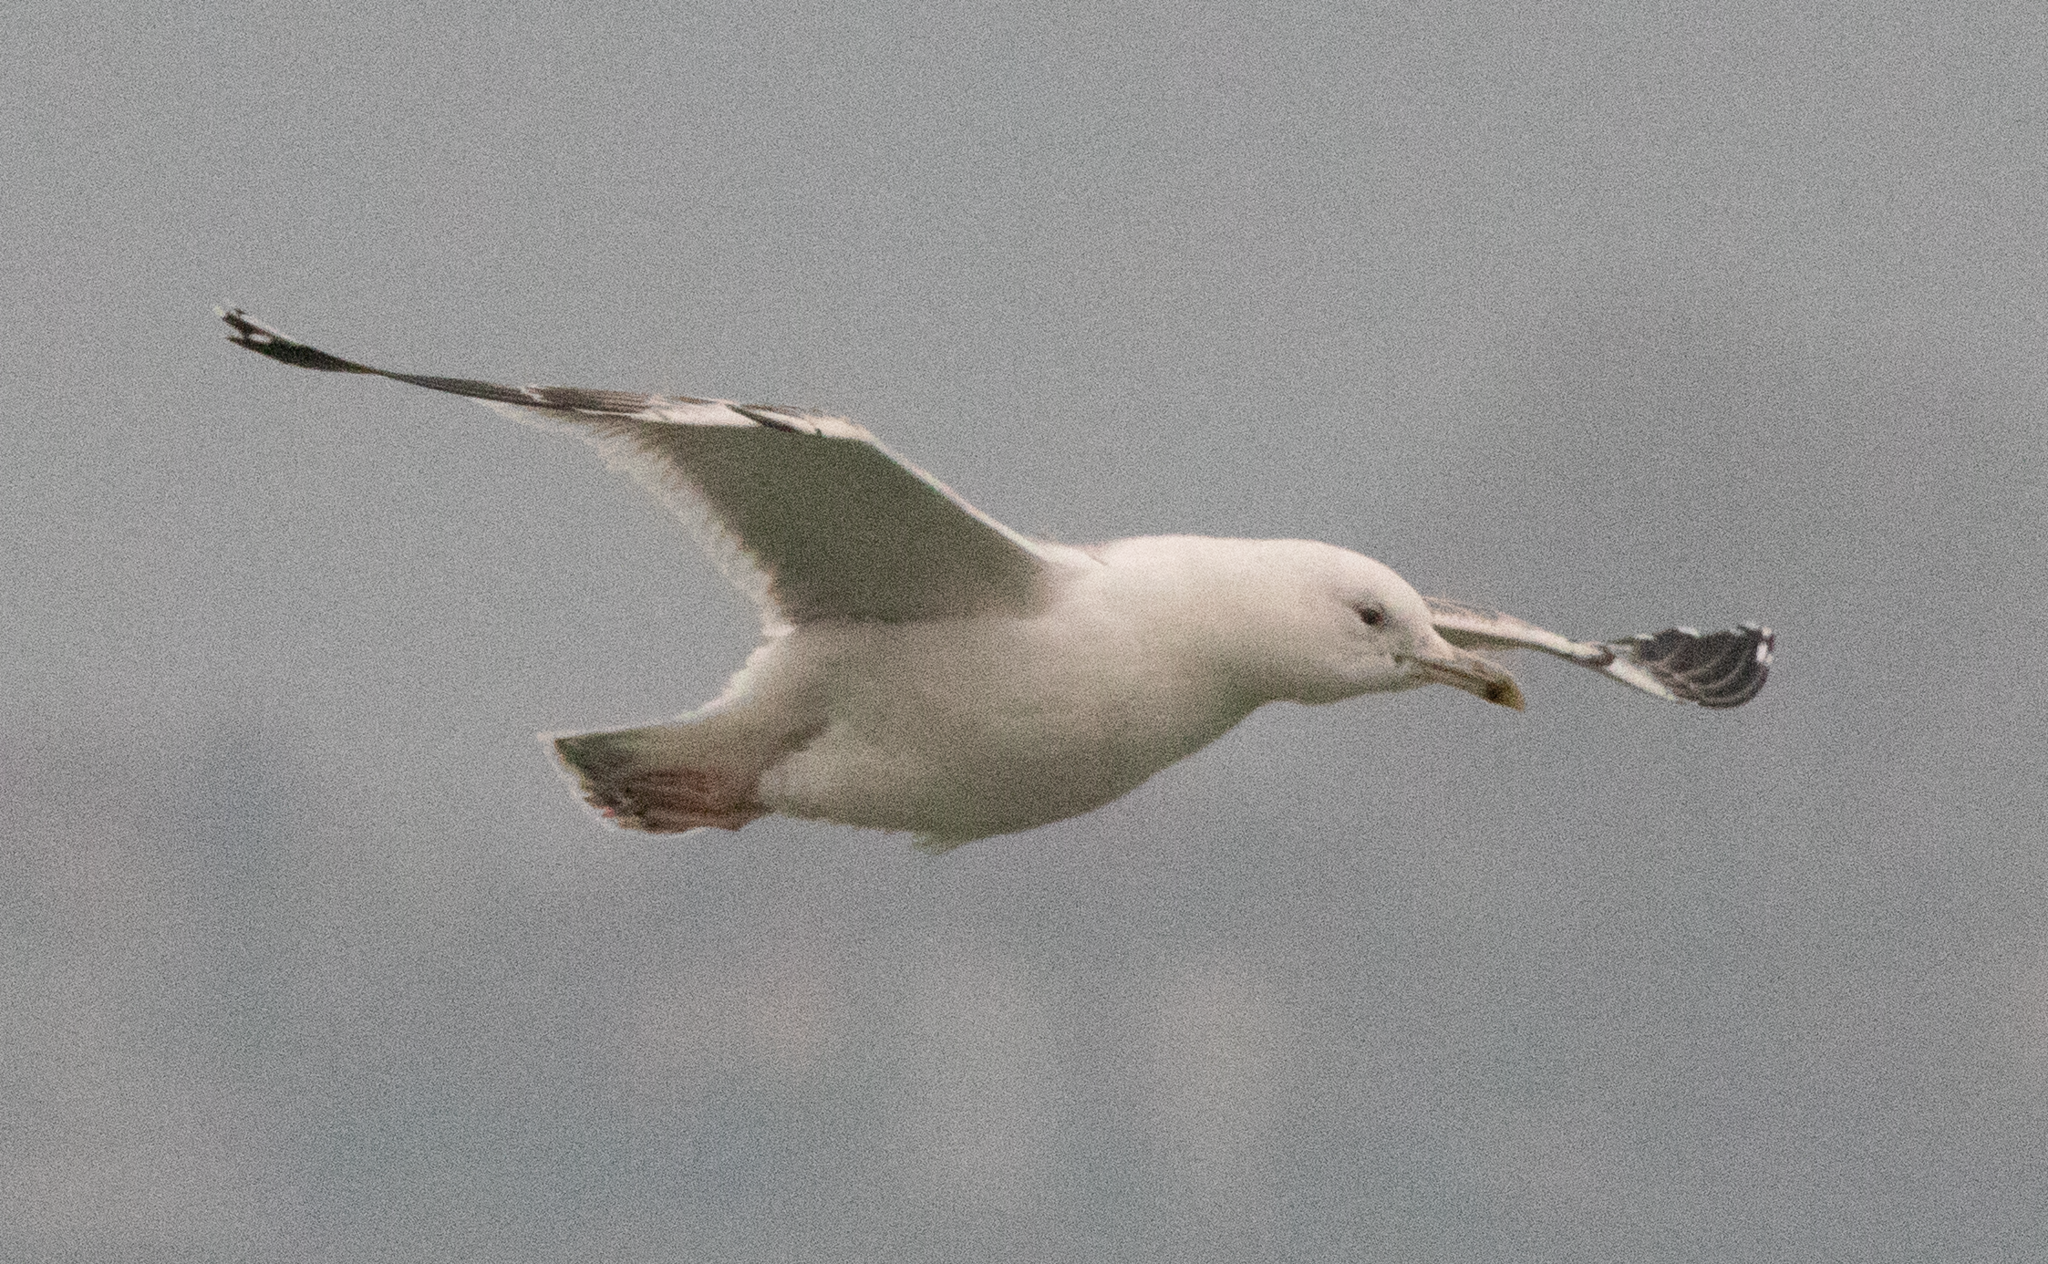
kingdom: Animalia
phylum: Chordata
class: Aves
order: Charadriiformes
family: Laridae
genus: Larus
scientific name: Larus cachinnans
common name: Caspian gull
